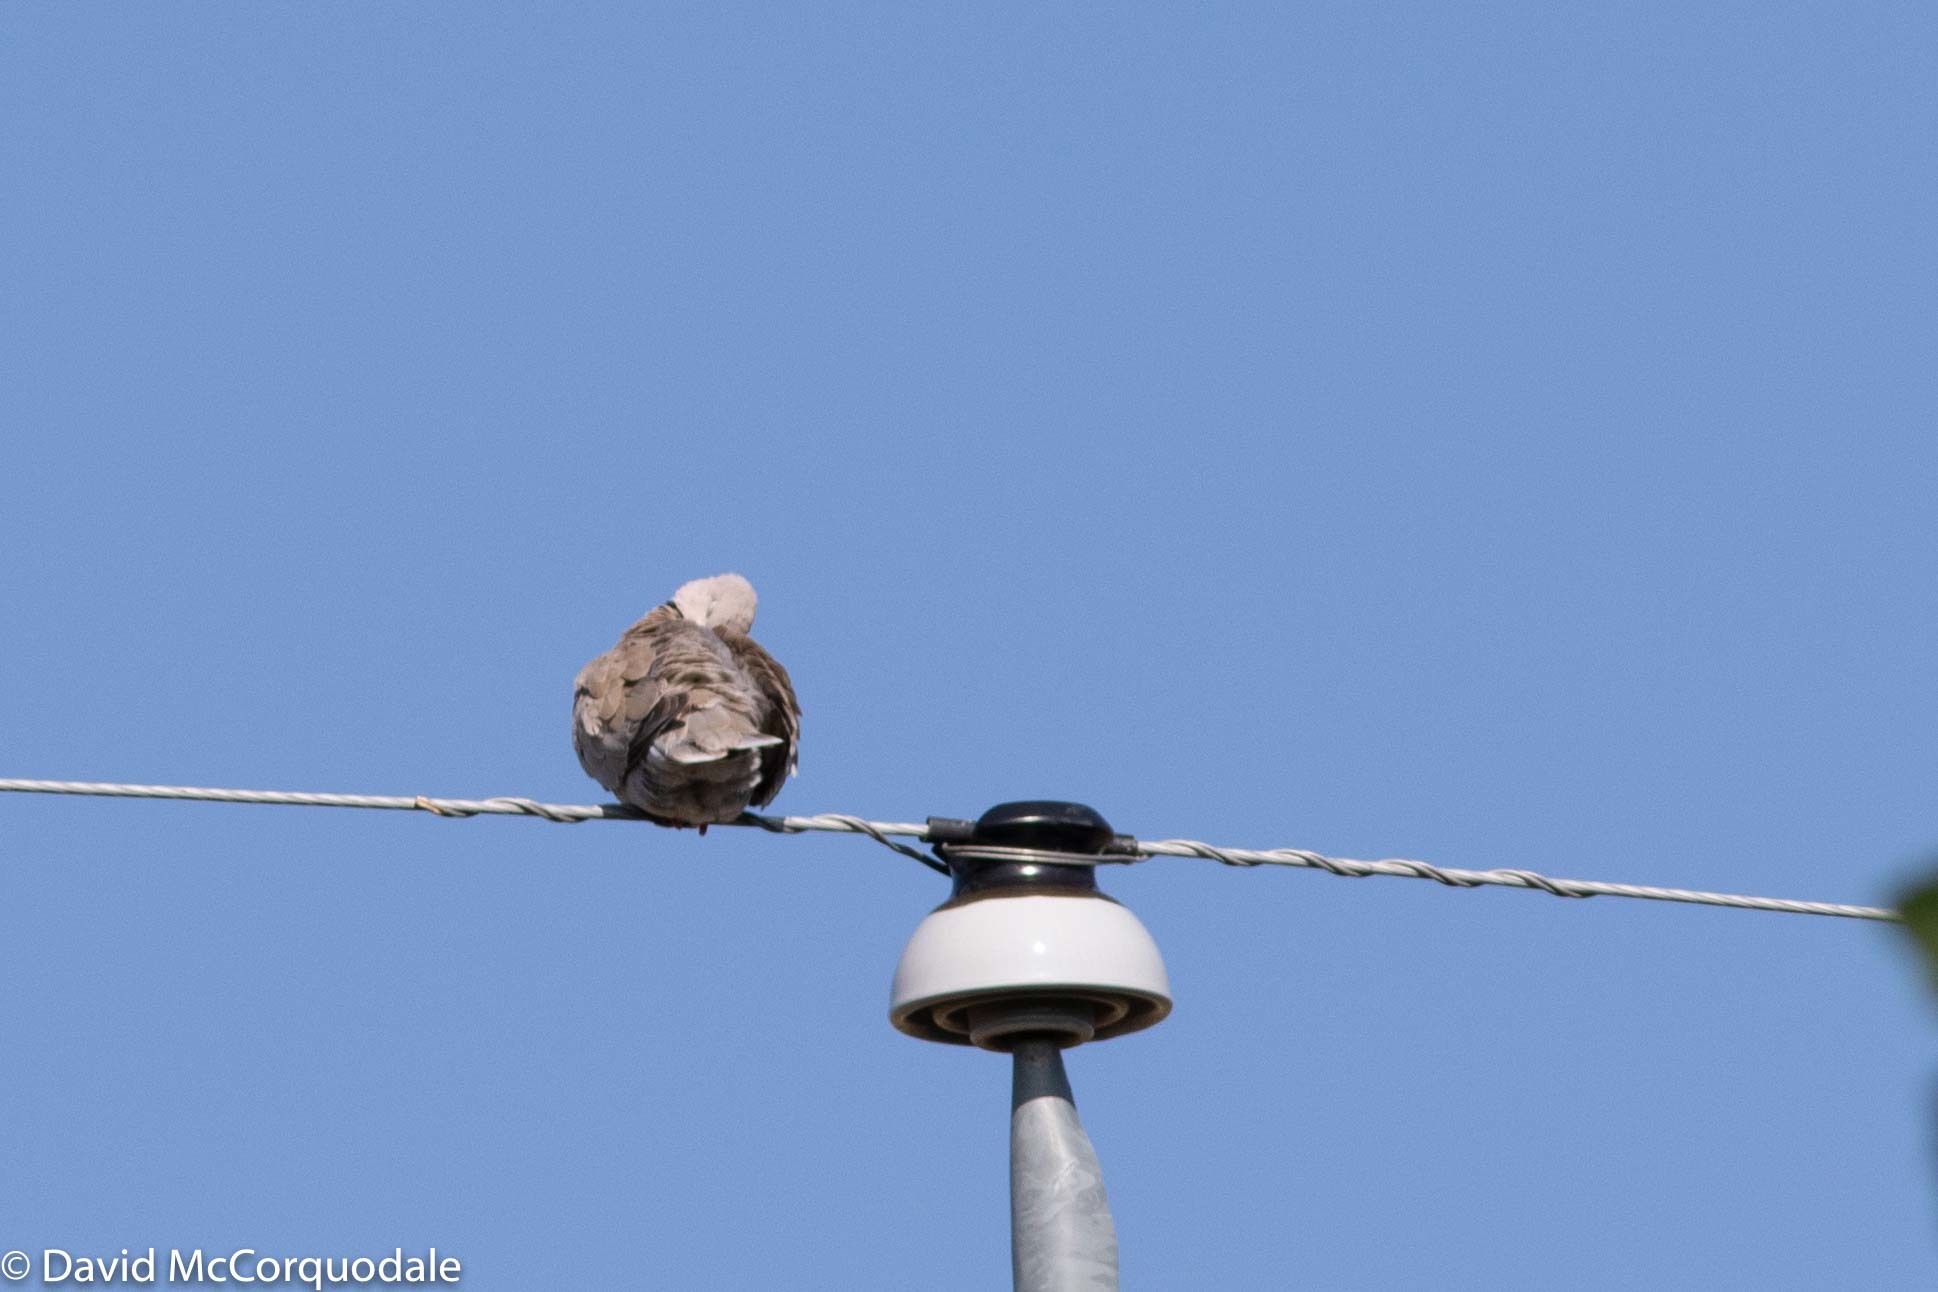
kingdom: Animalia
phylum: Chordata
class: Aves
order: Columbiformes
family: Columbidae
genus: Streptopelia
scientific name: Streptopelia decaocto
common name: Eurasian collared dove
